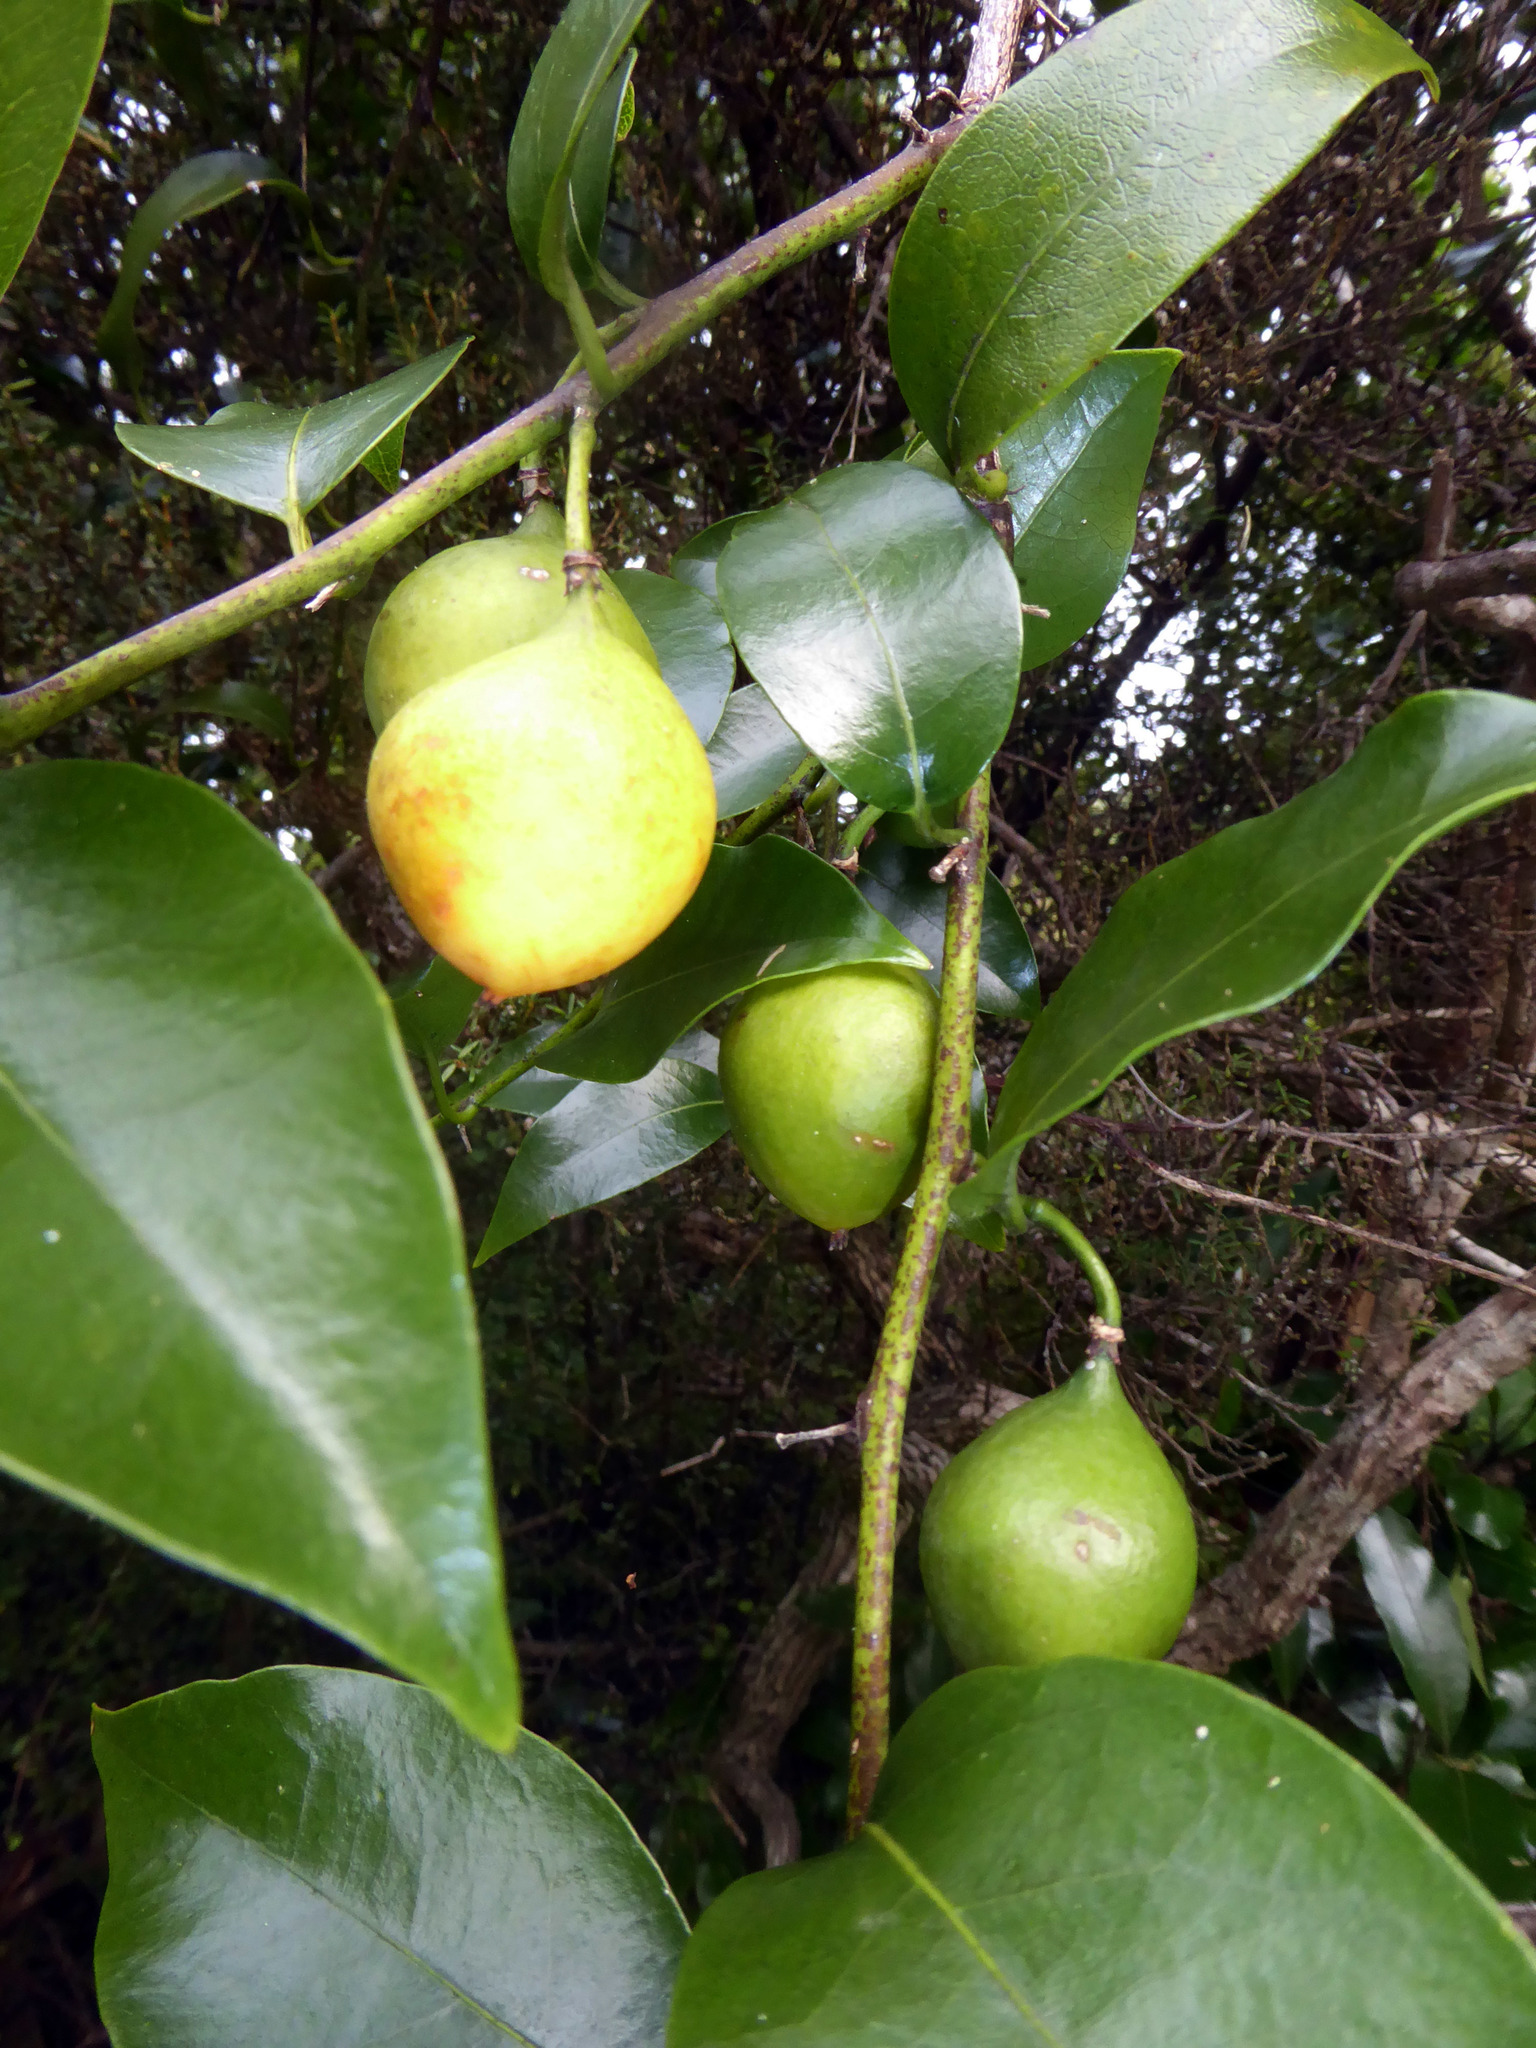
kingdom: Plantae
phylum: Tracheophyta
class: Magnoliopsida
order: Malpighiales
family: Passifloraceae
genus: Passiflora
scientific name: Passiflora tetrandra
